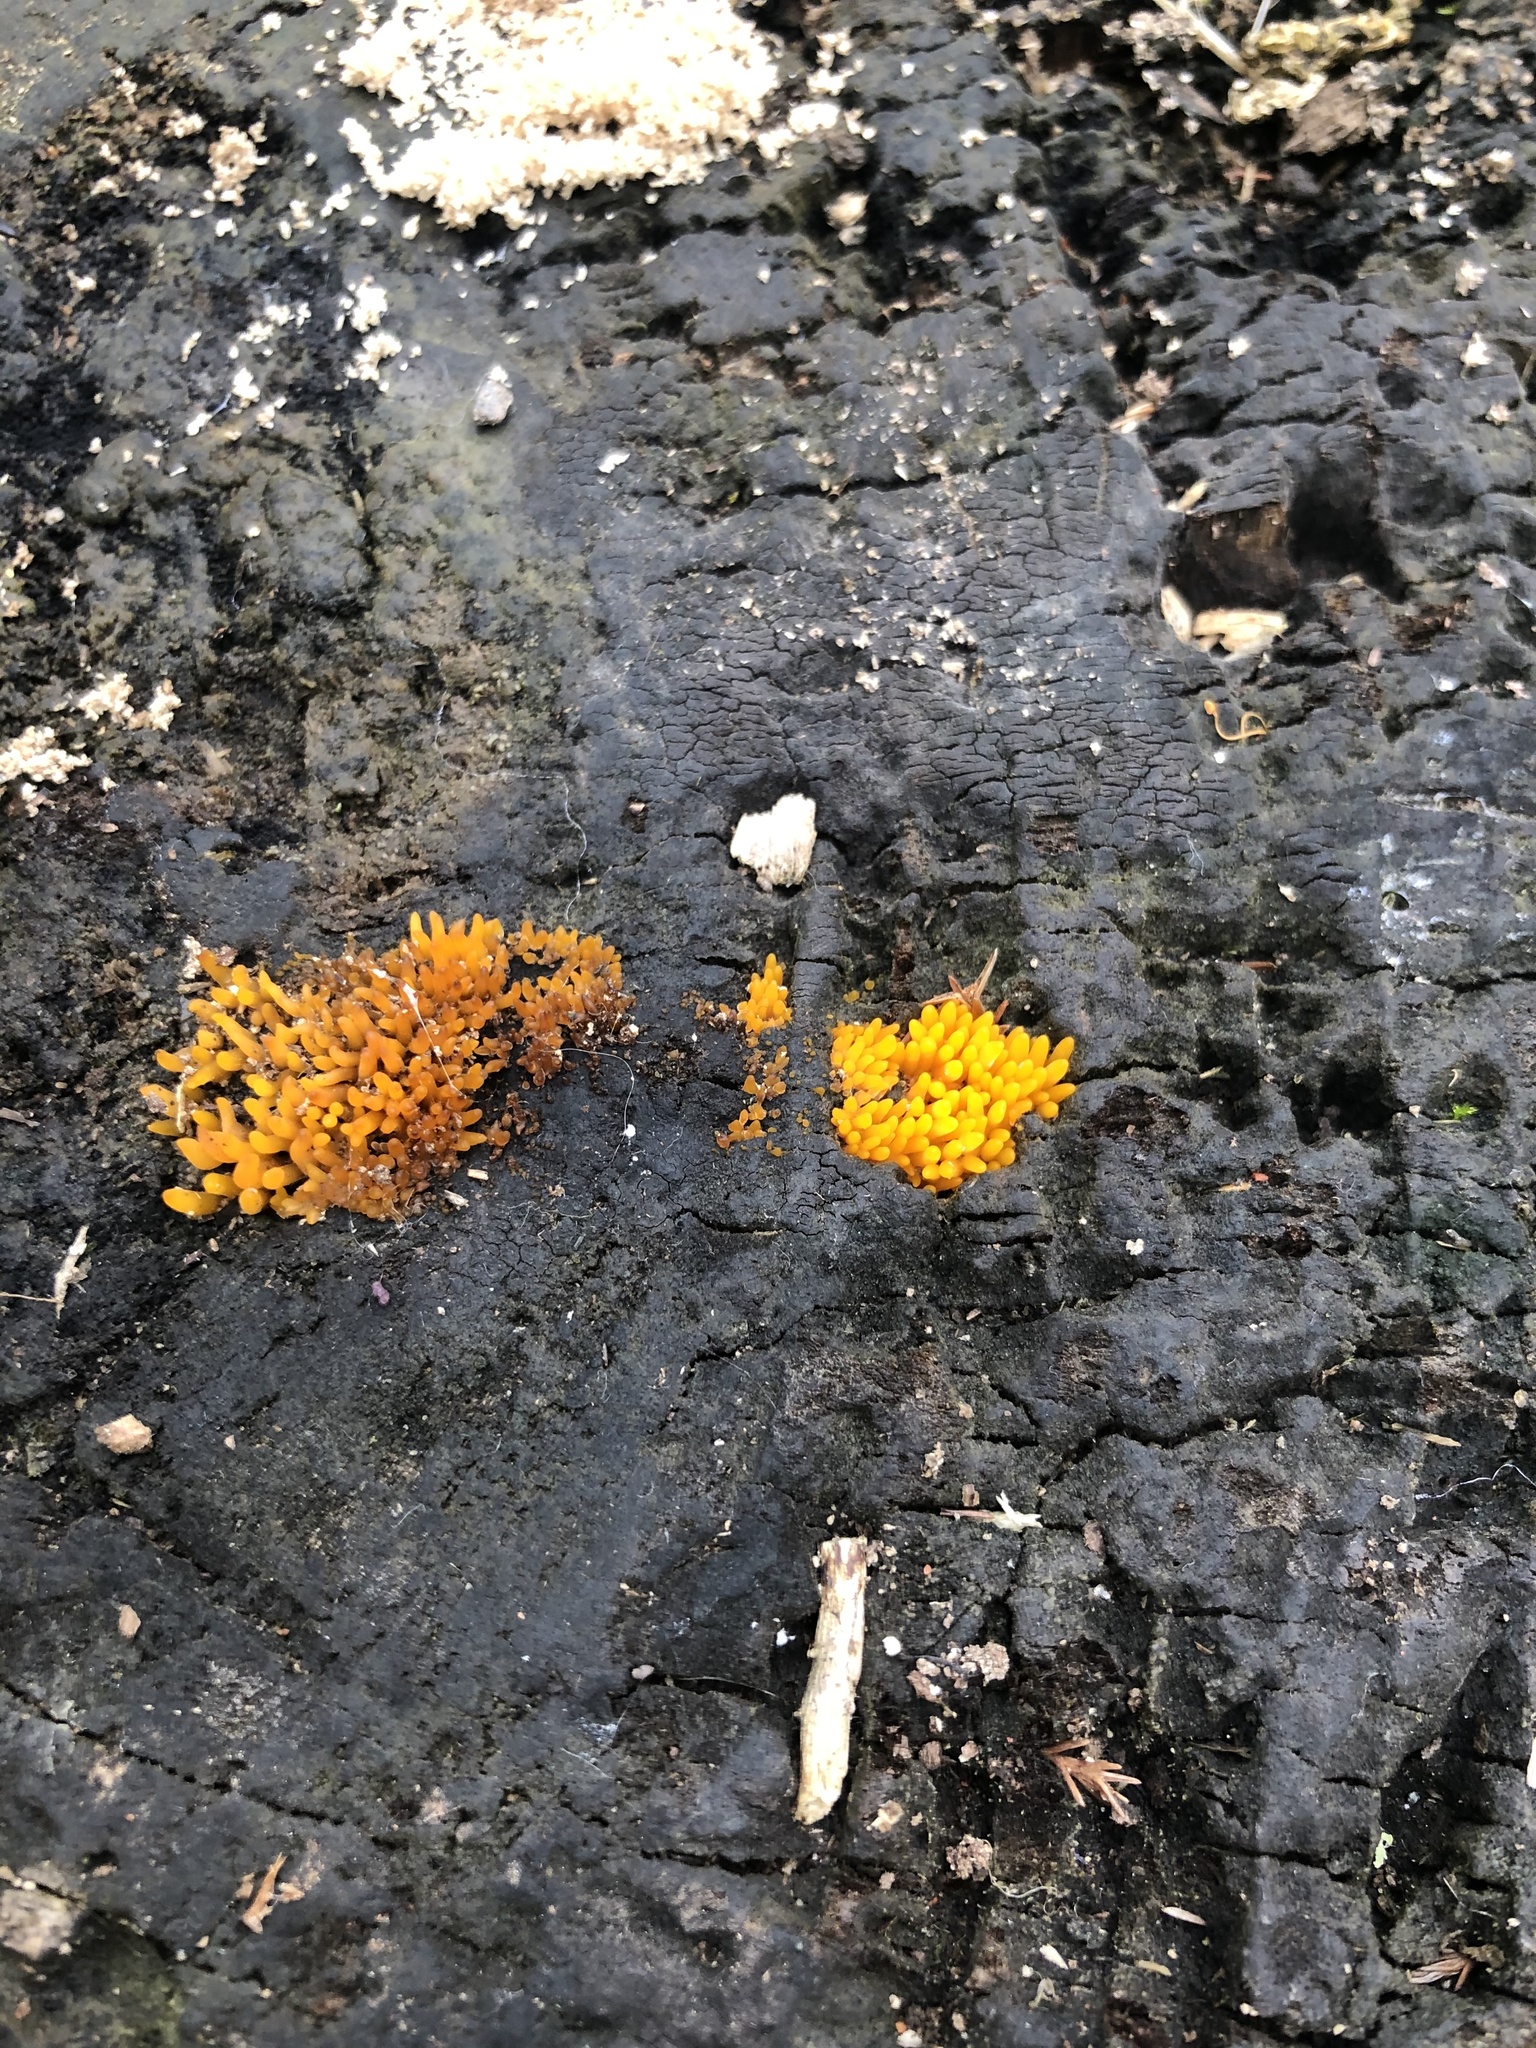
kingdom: Fungi
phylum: Basidiomycota
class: Dacrymycetes
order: Dacrymycetales
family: Dacrymycetaceae
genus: Calocera
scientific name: Calocera cornea
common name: Small stagshorn
